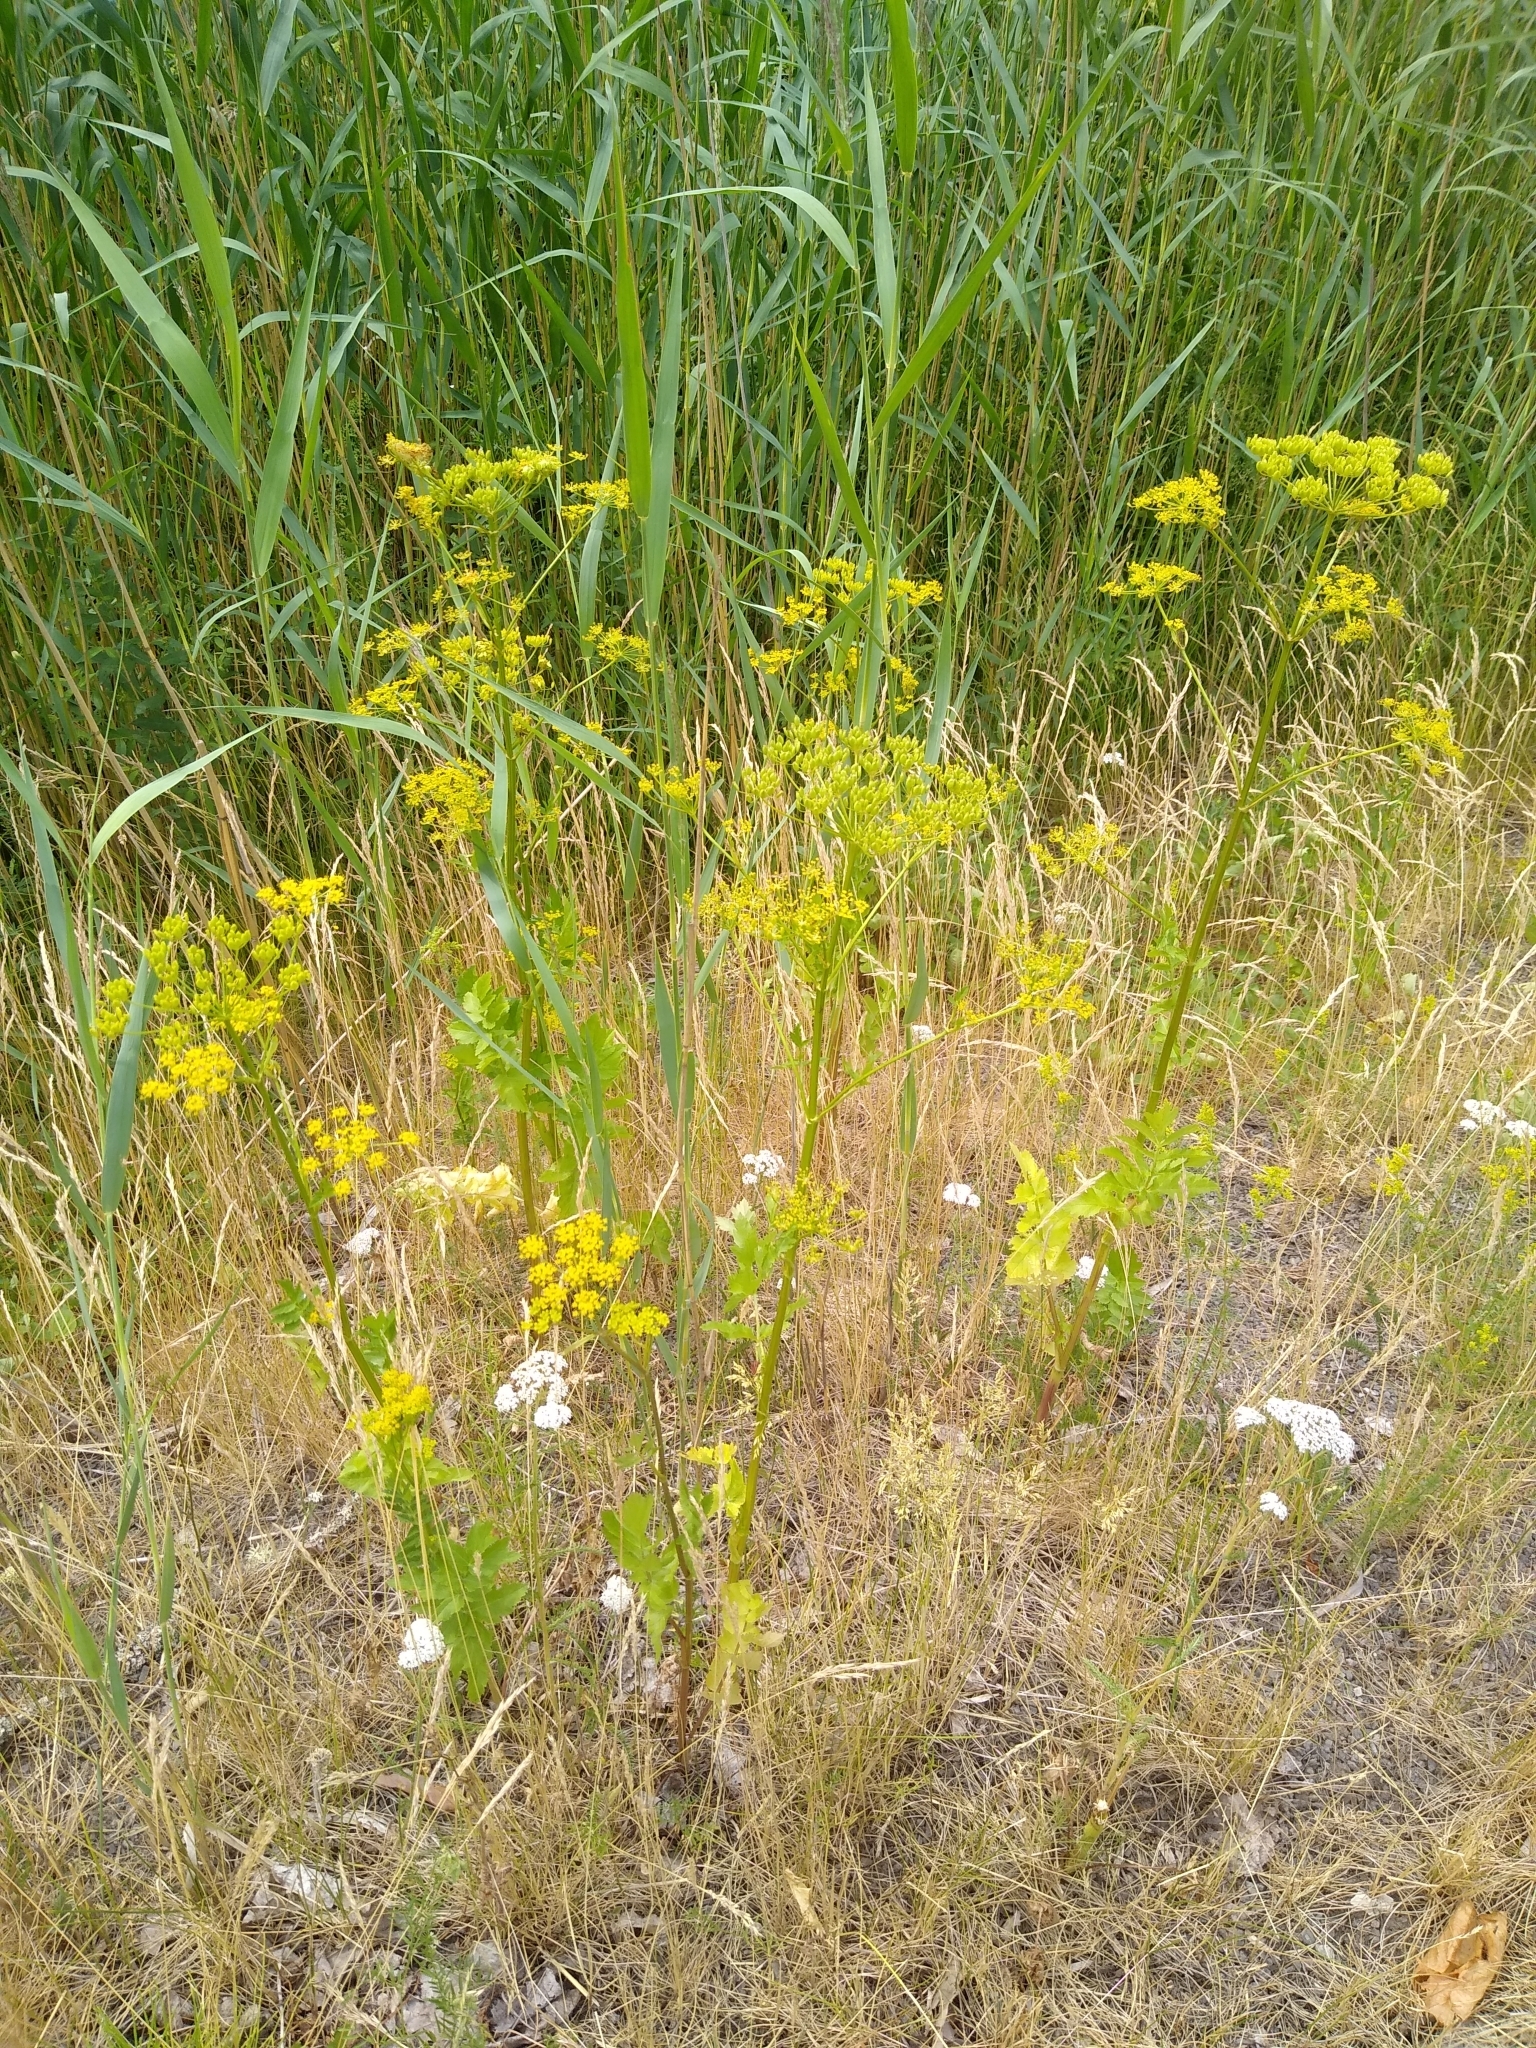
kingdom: Plantae
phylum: Tracheophyta
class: Magnoliopsida
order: Apiales
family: Apiaceae
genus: Pastinaca
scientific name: Pastinaca sativa
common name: Wild parsnip
